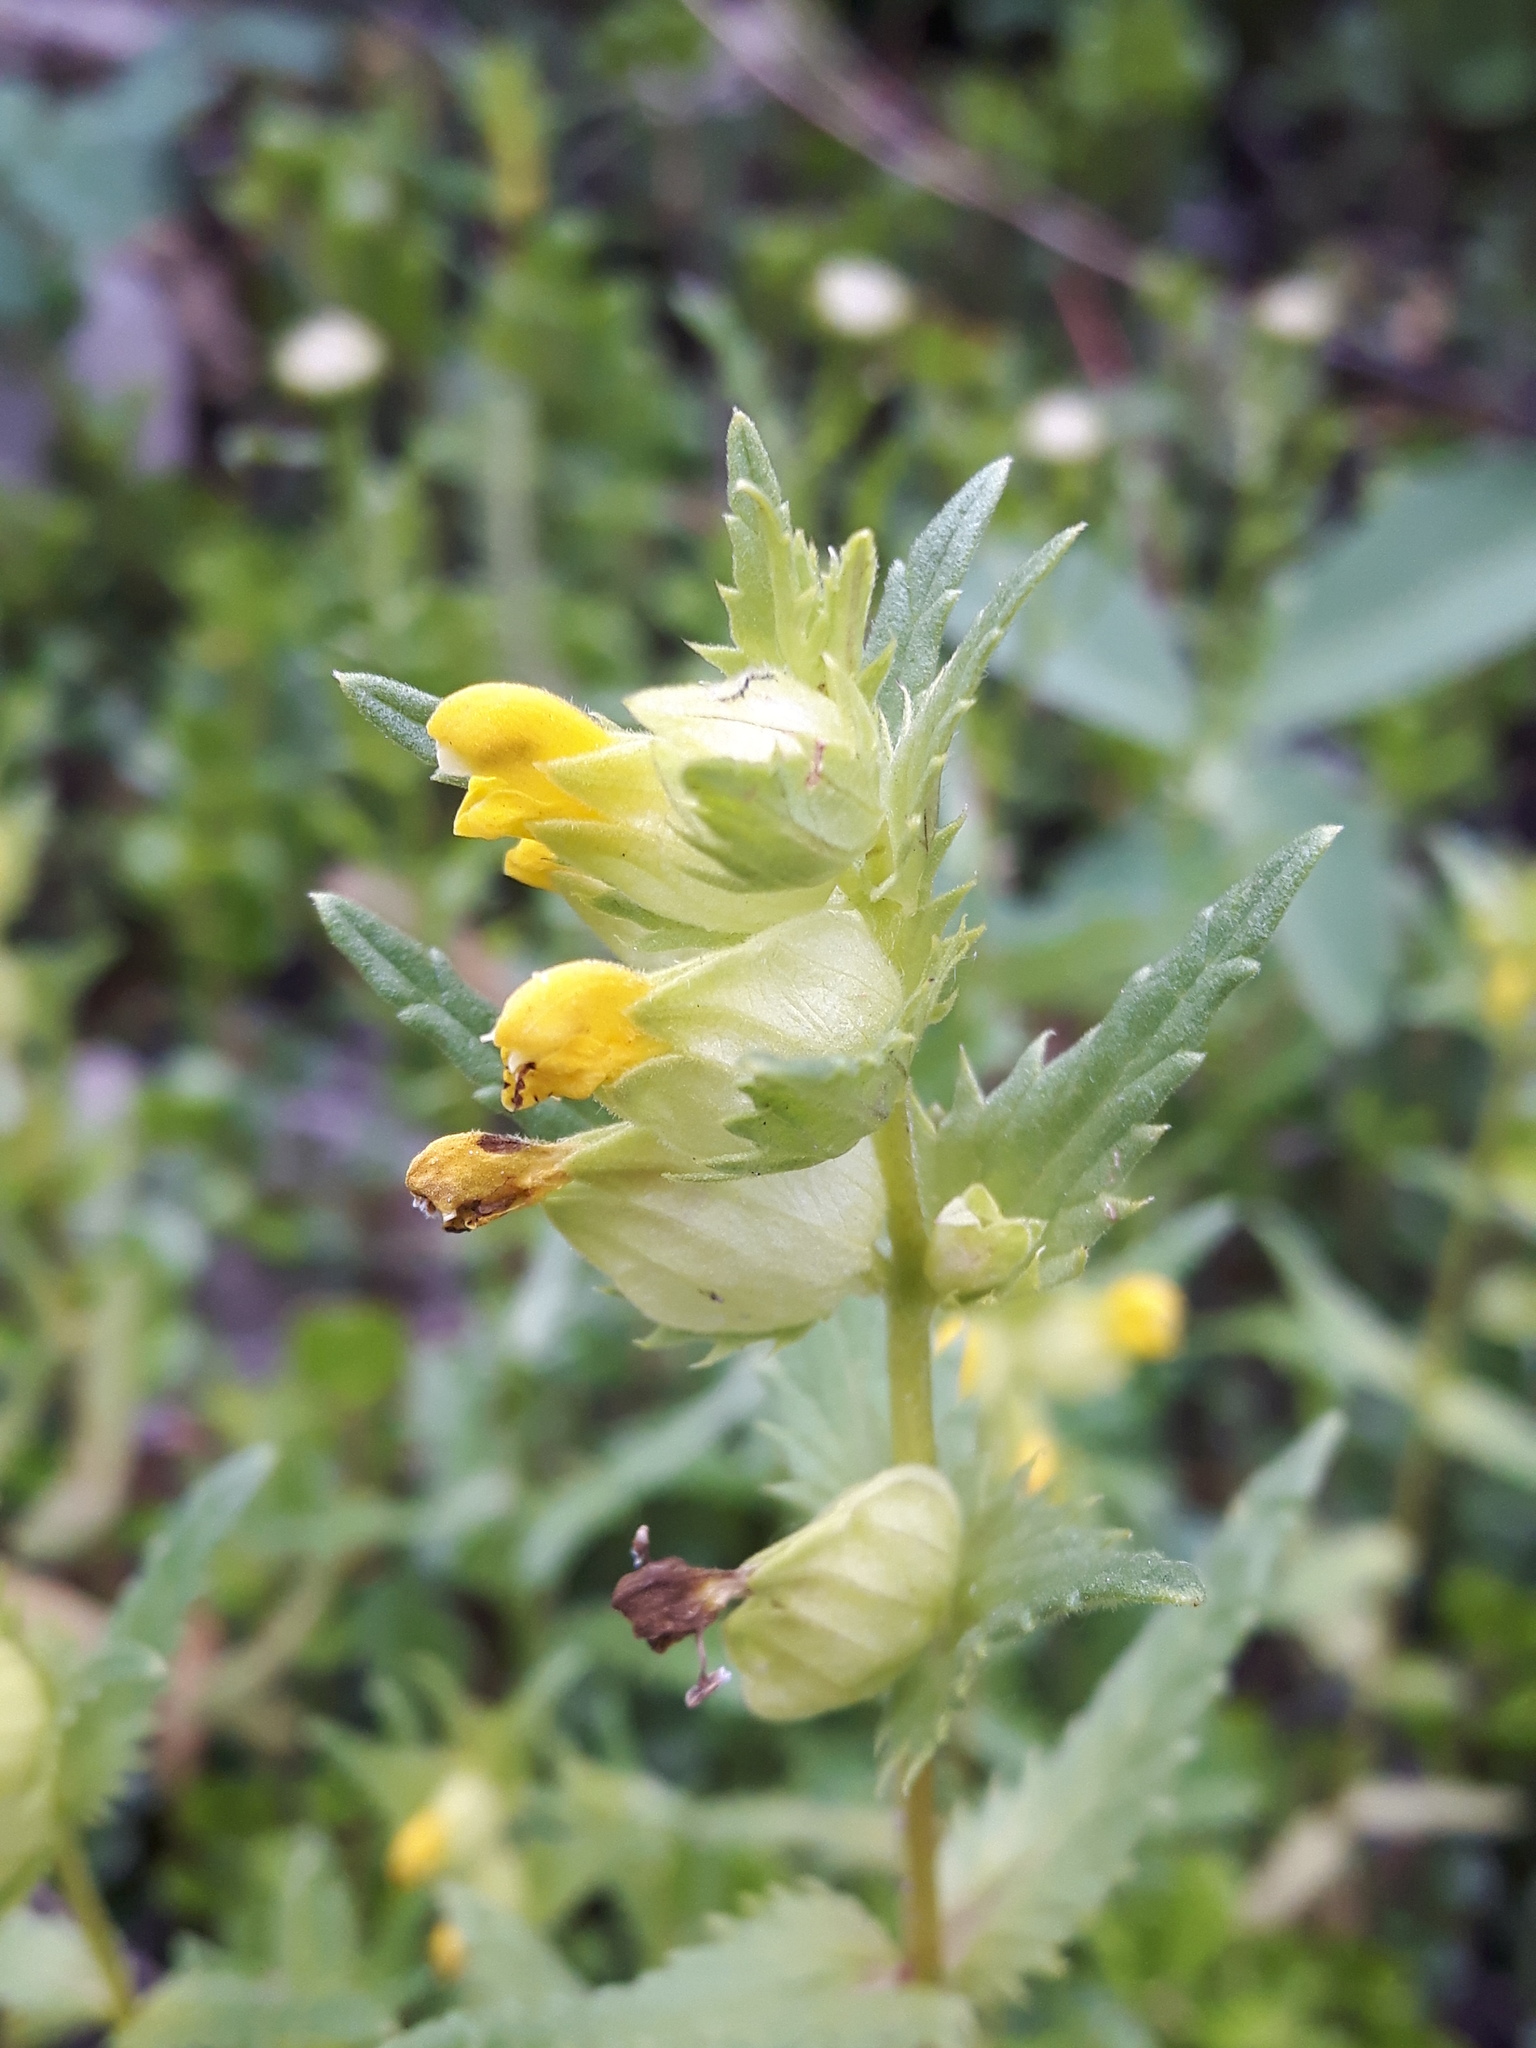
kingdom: Plantae
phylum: Tracheophyta
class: Magnoliopsida
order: Lamiales
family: Orobanchaceae
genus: Rhinanthus
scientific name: Rhinanthus groenlandicus
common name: Little yellow rattle
